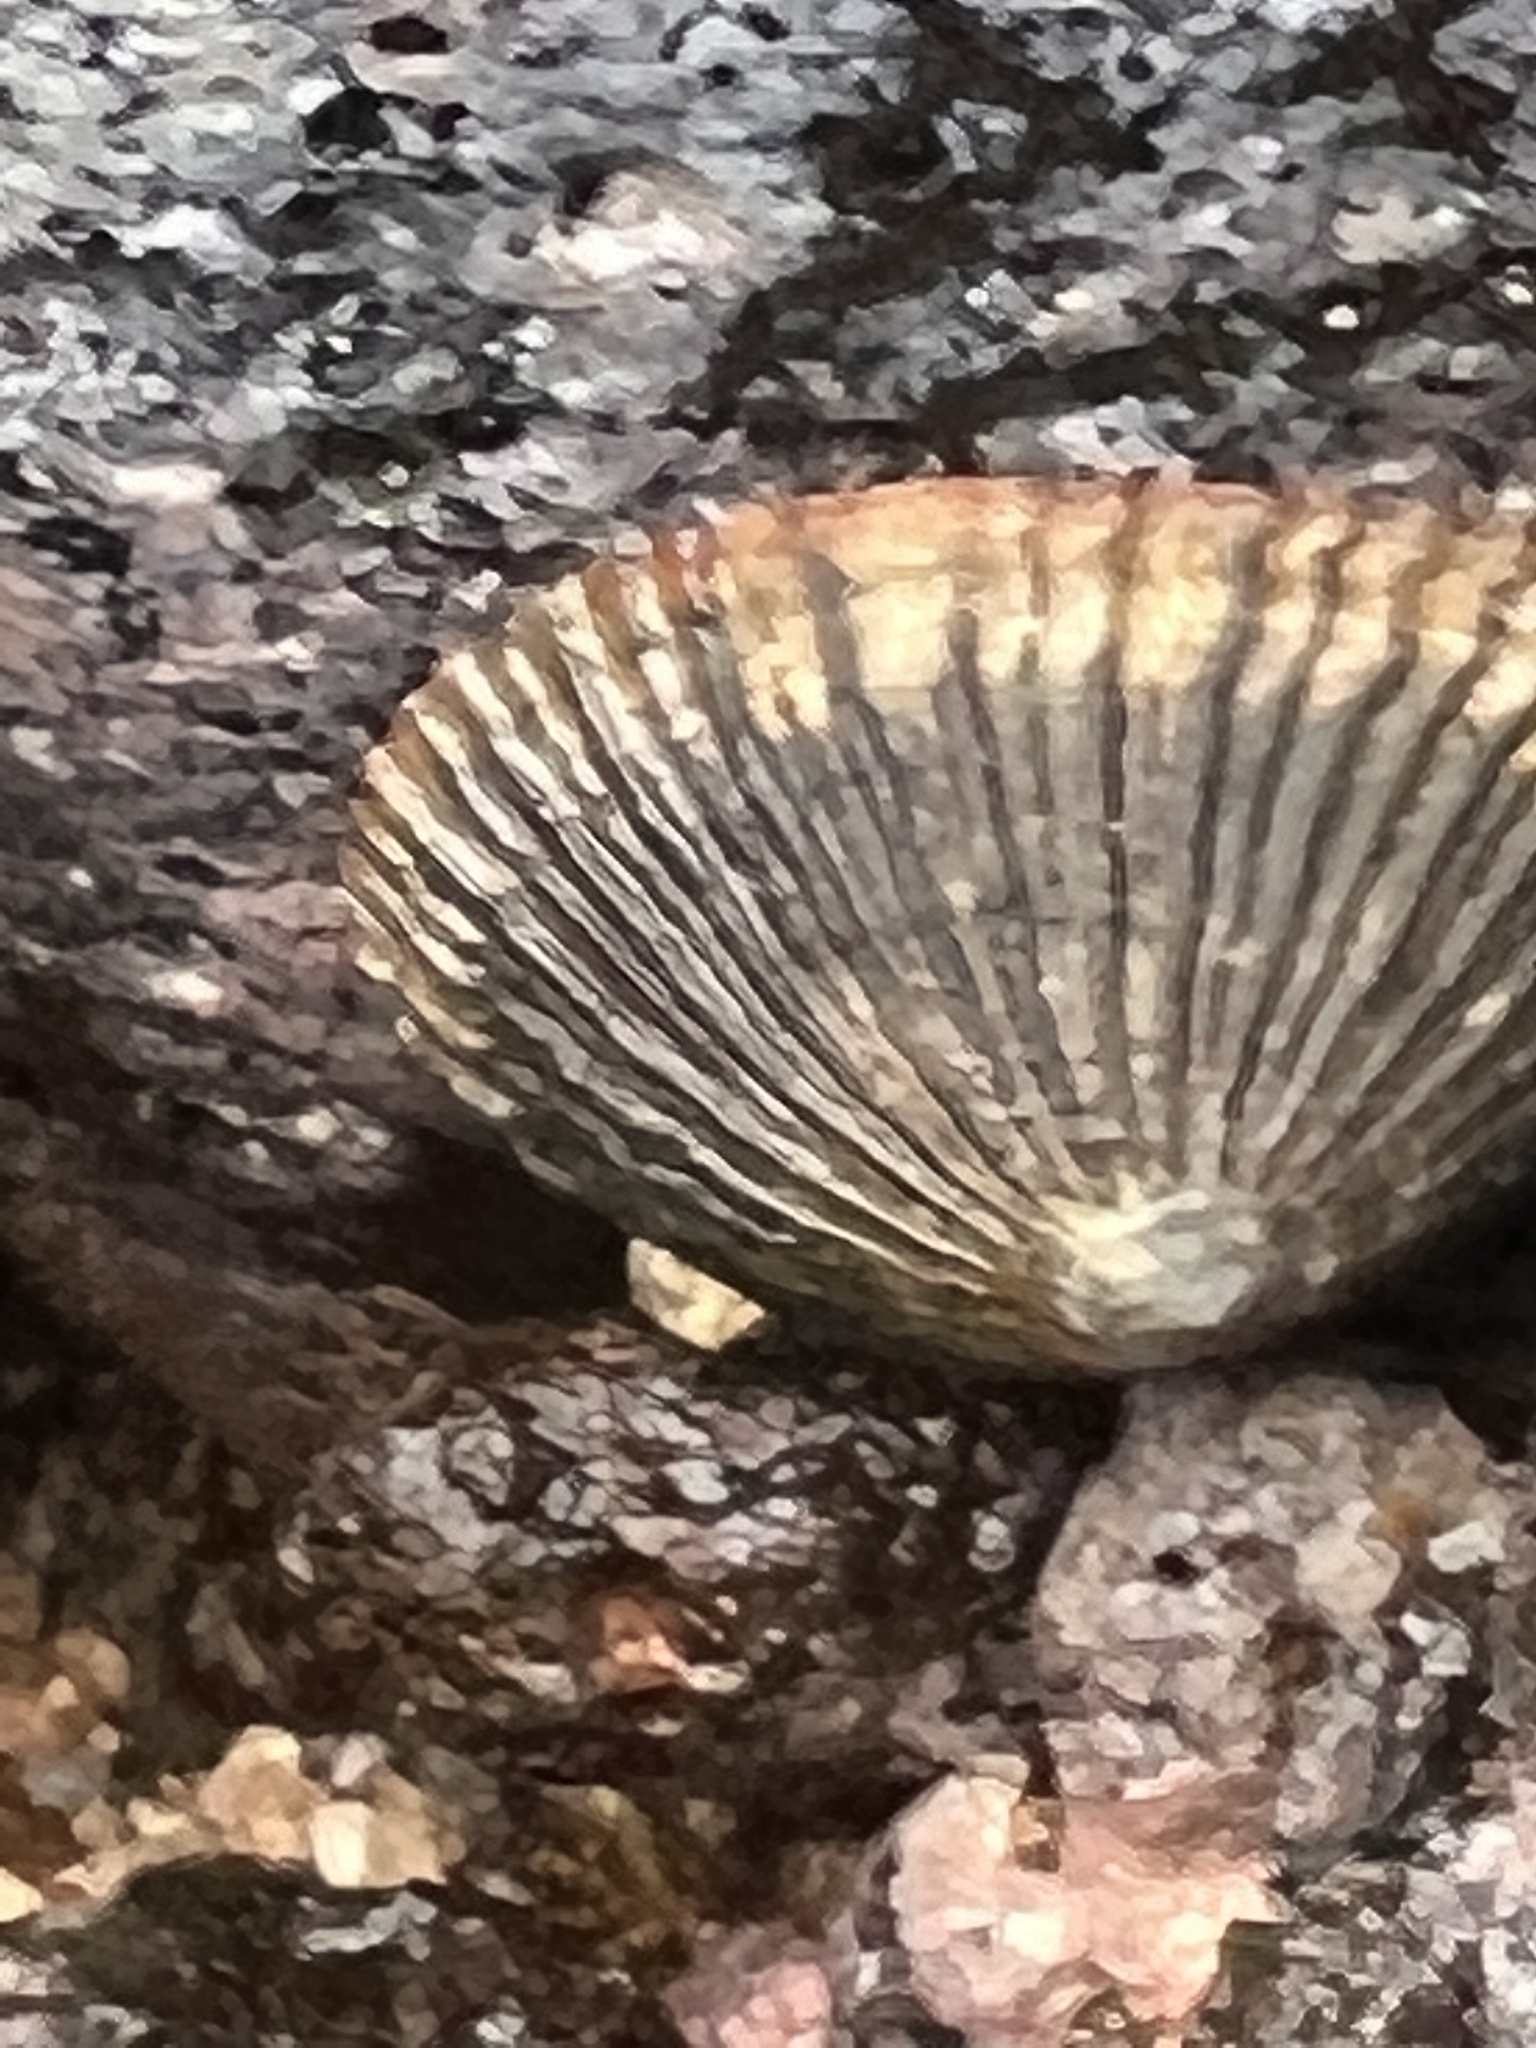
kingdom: Animalia
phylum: Mollusca
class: Gastropoda
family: Nacellidae
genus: Cellana
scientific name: Cellana exarata
